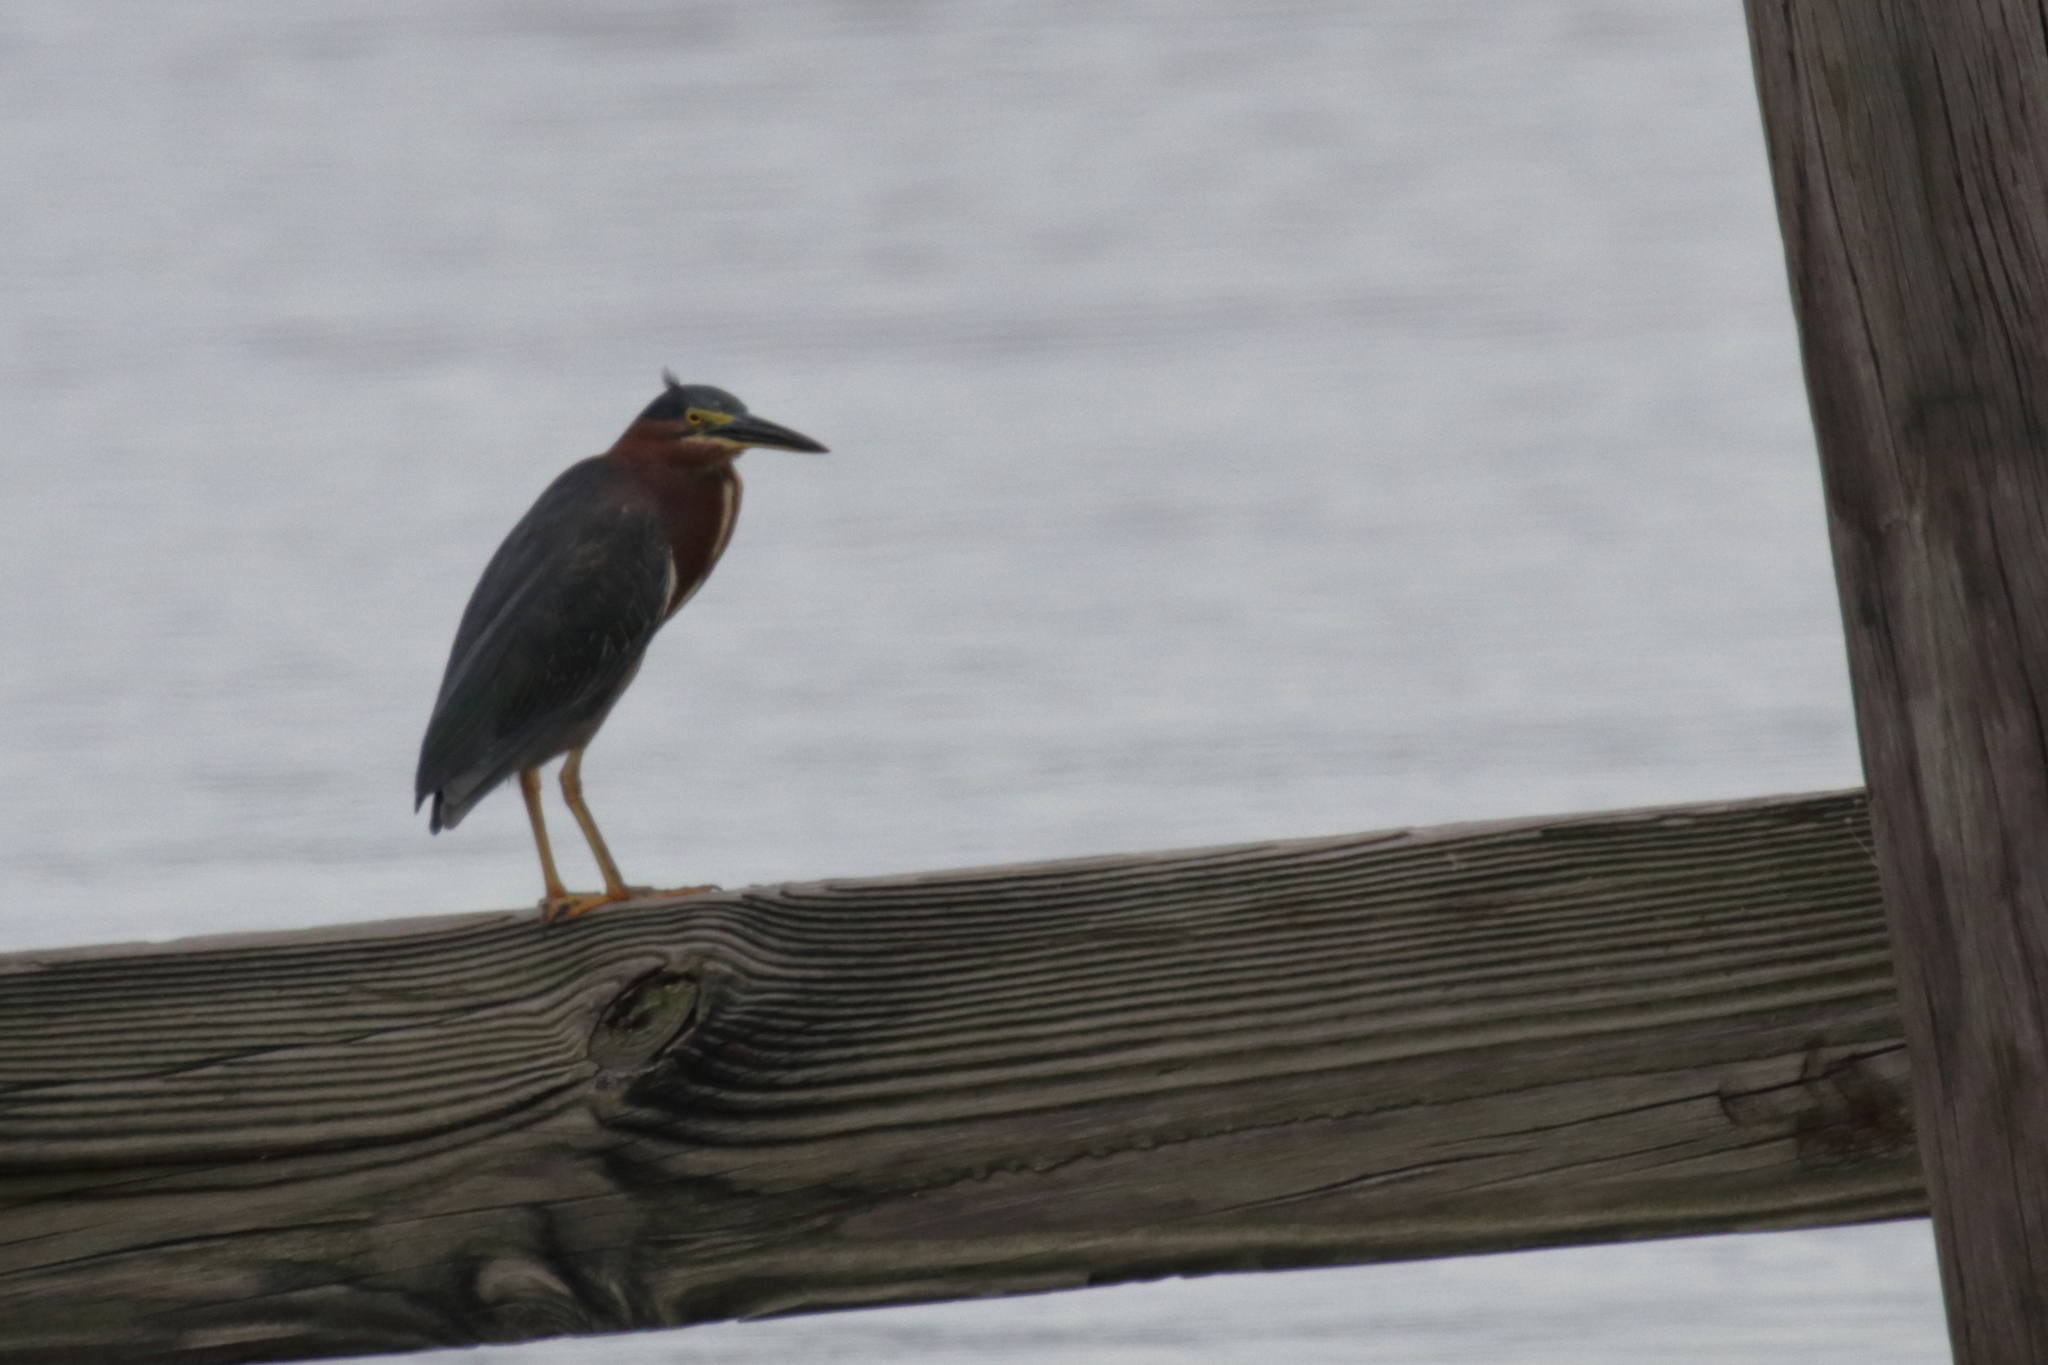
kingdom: Animalia
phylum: Chordata
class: Aves
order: Pelecaniformes
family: Ardeidae
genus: Butorides
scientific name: Butorides virescens
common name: Green heron
